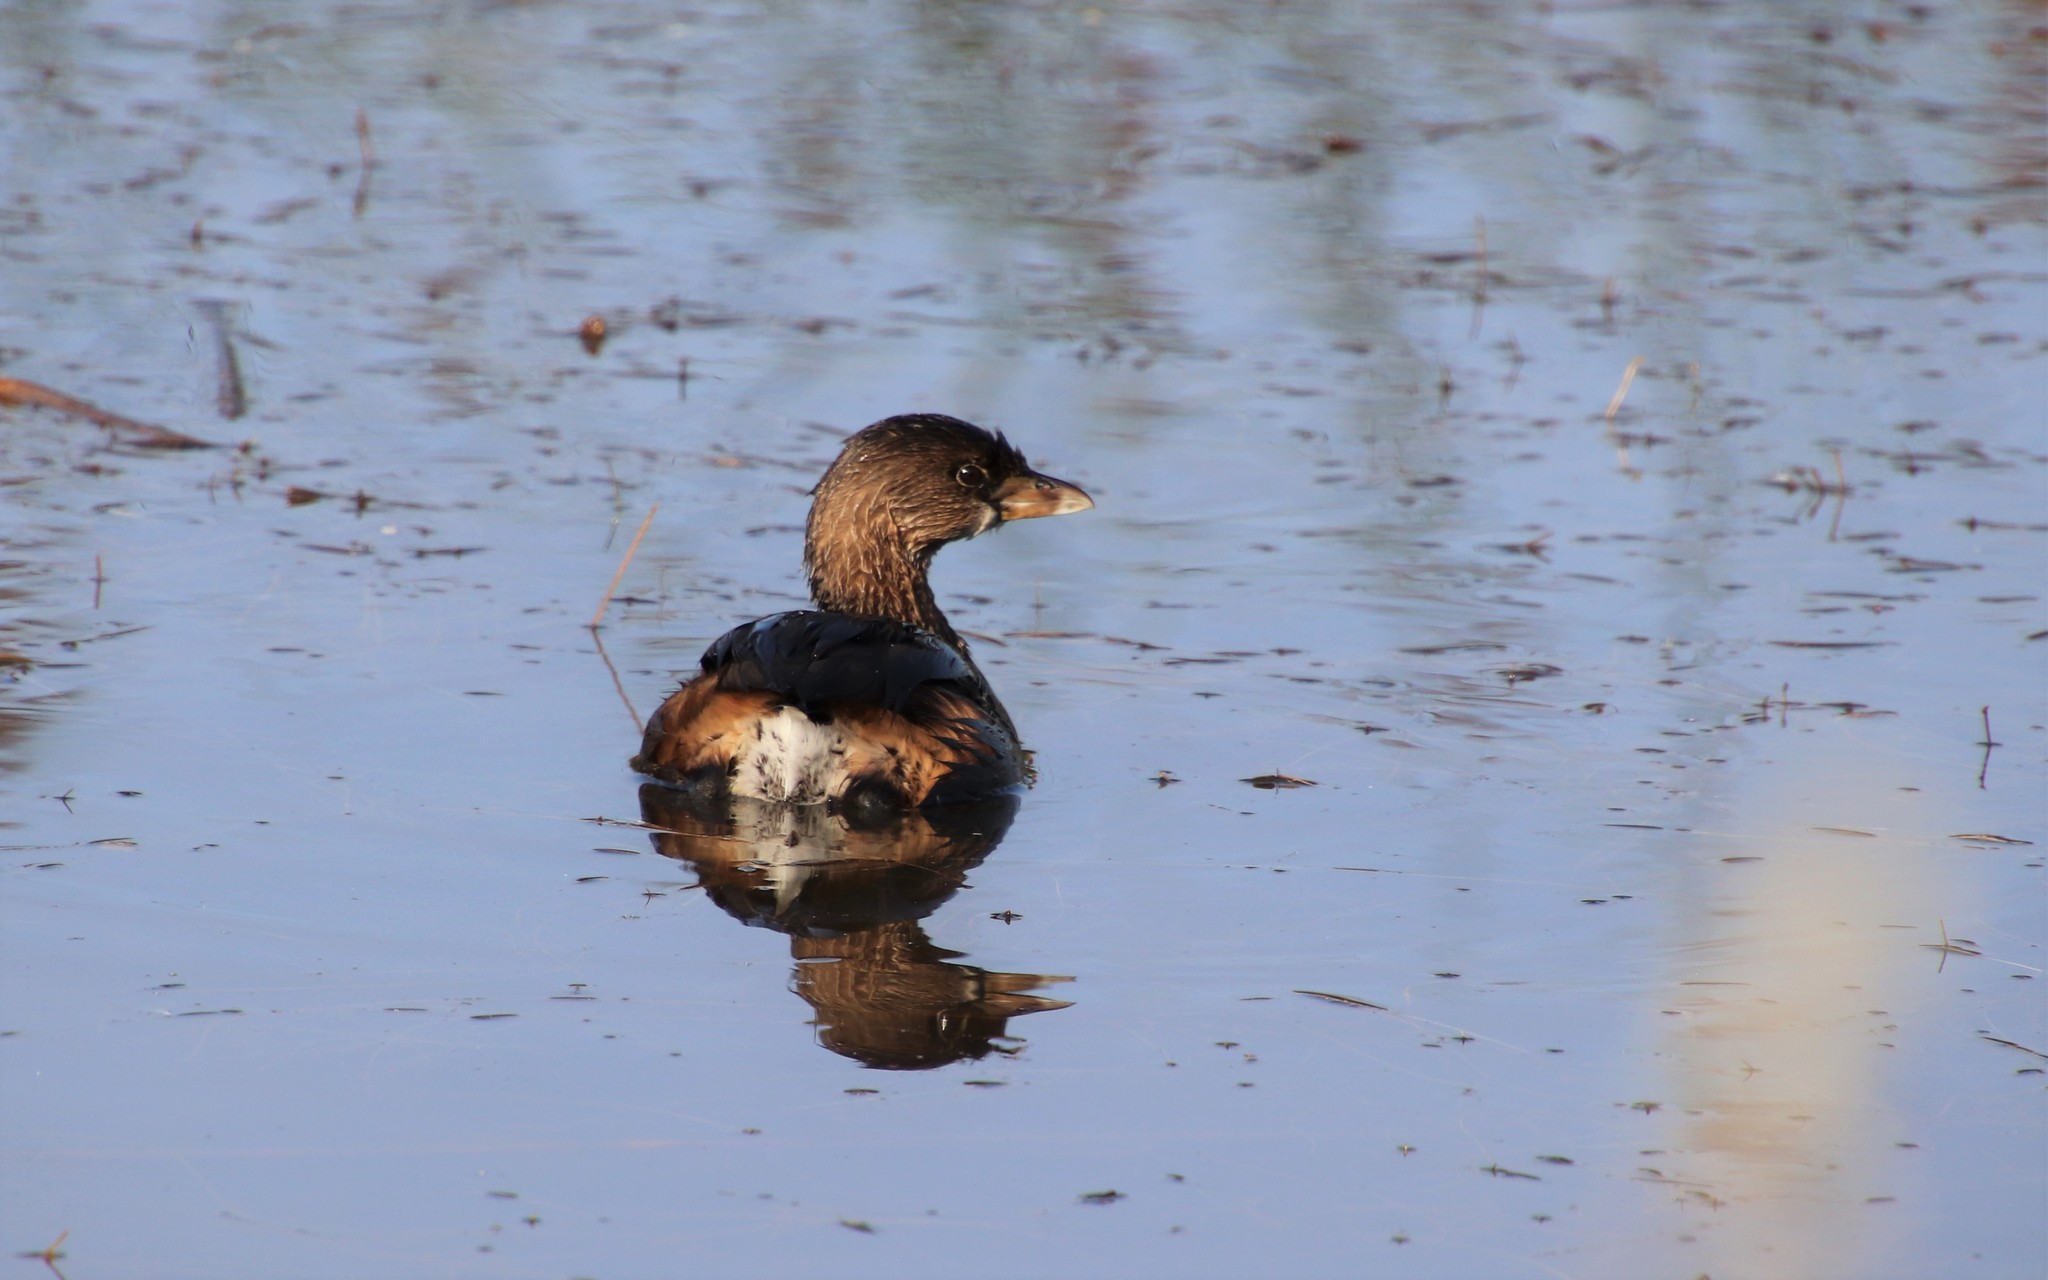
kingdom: Animalia
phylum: Chordata
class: Aves
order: Podicipediformes
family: Podicipedidae
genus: Podilymbus
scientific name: Podilymbus podiceps
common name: Pied-billed grebe
